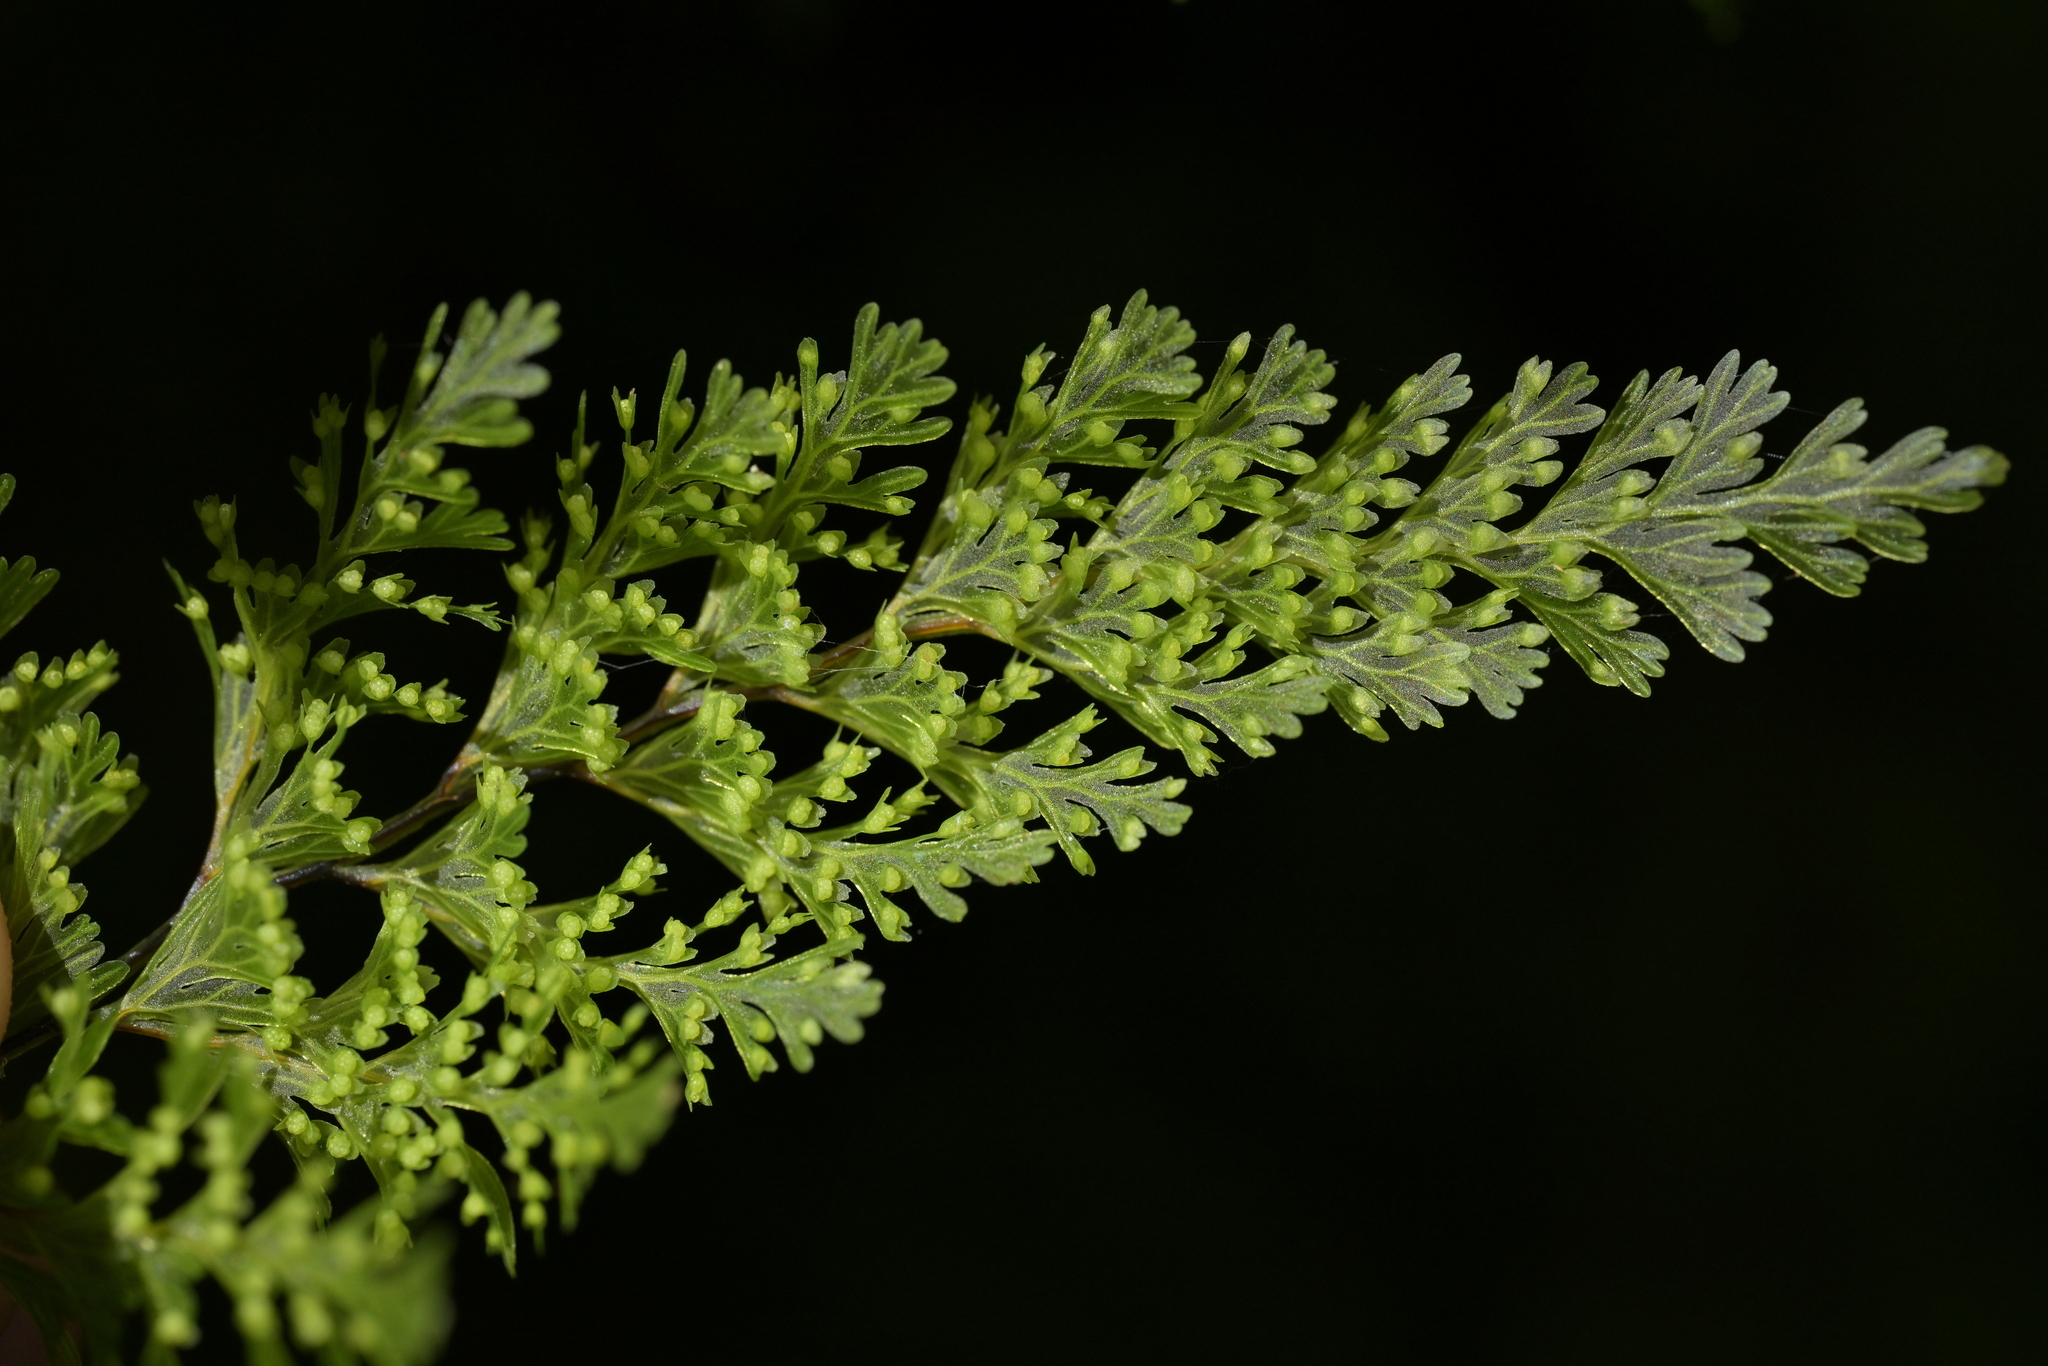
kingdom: Plantae
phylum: Tracheophyta
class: Polypodiopsida
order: Hymenophyllales
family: Hymenophyllaceae
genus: Hymenophyllum
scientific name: Hymenophyllum demissum
